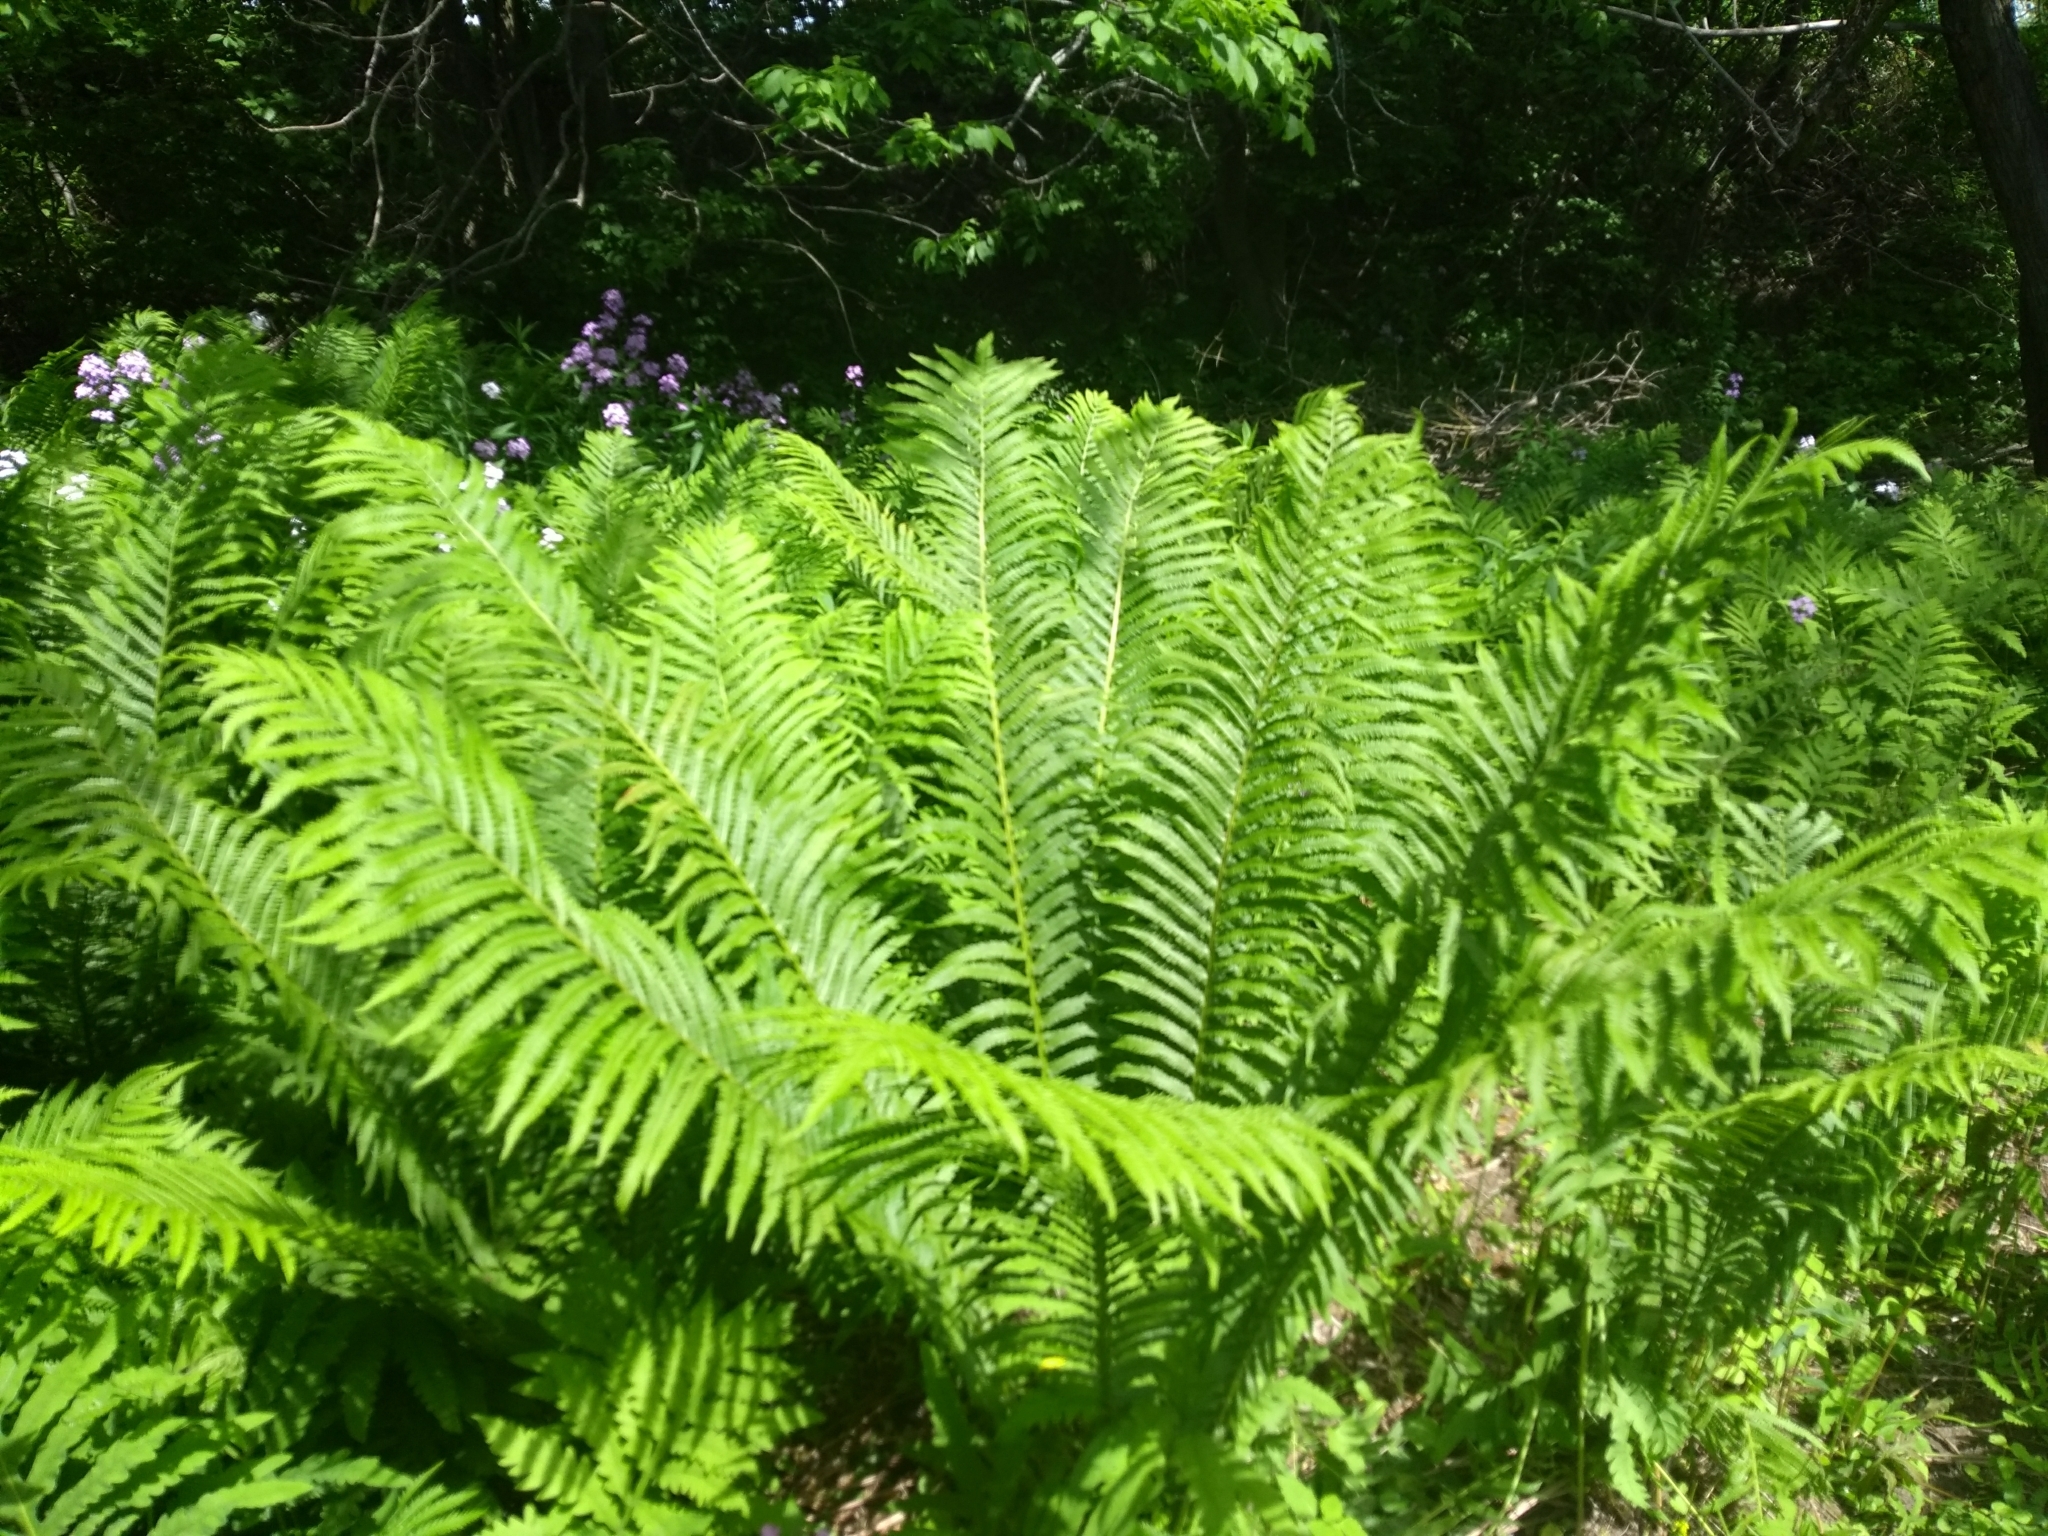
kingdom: Plantae
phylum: Tracheophyta
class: Polypodiopsida
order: Polypodiales
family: Onocleaceae
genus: Matteuccia
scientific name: Matteuccia struthiopteris
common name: Ostrich fern
